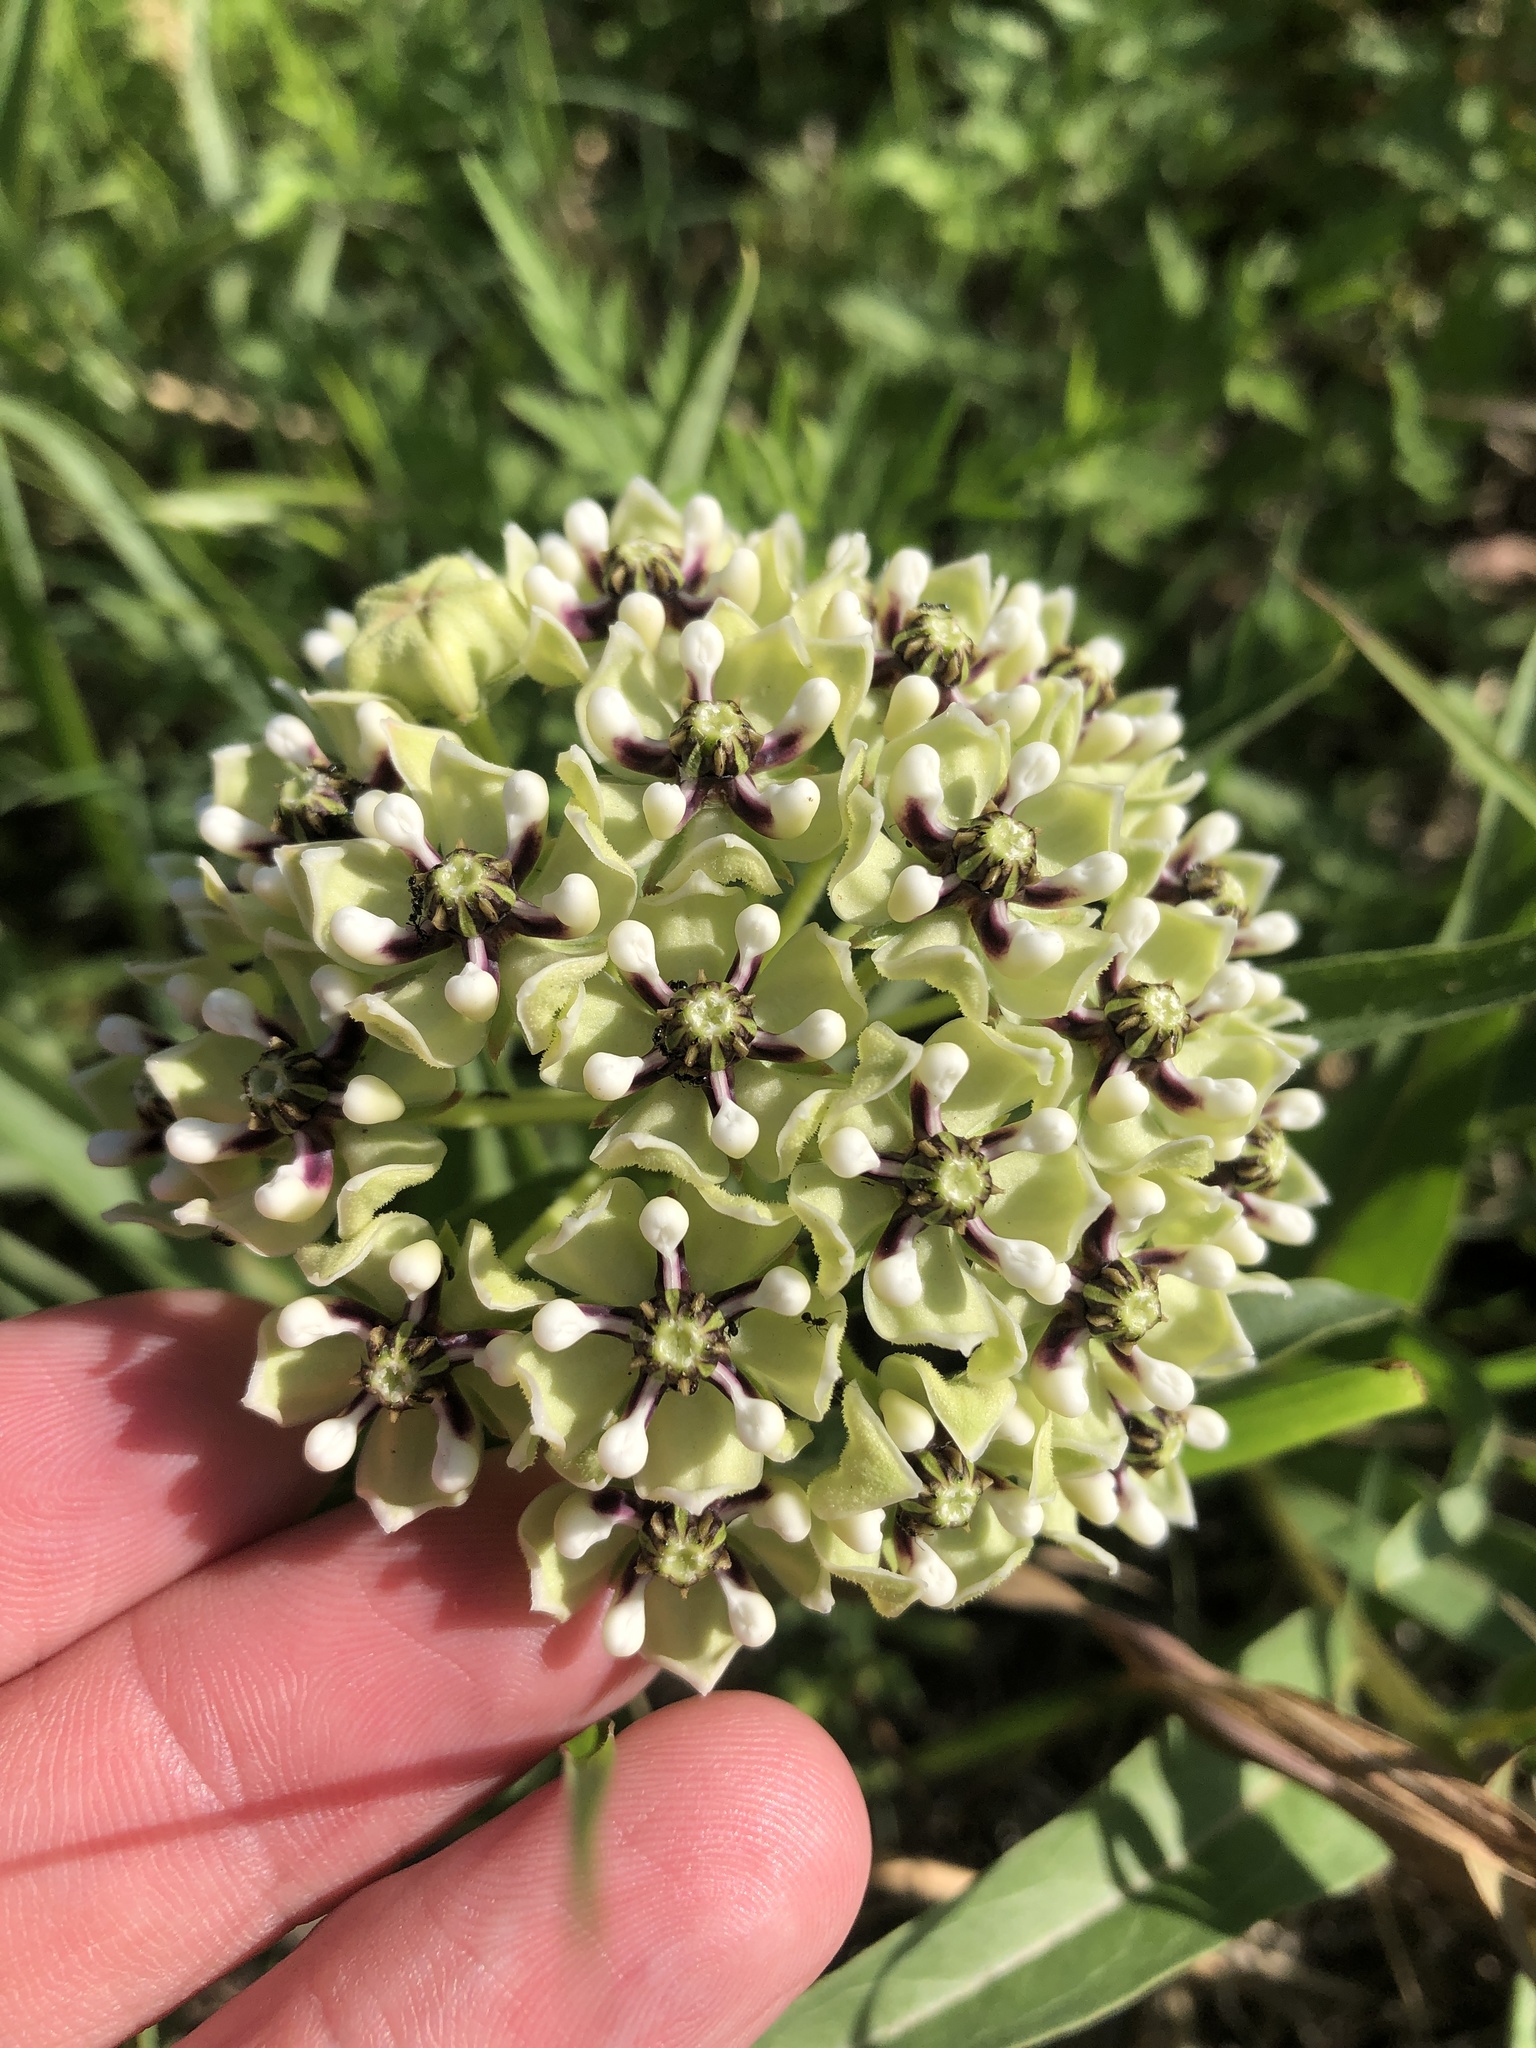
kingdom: Plantae
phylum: Tracheophyta
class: Magnoliopsida
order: Gentianales
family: Apocynaceae
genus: Asclepias
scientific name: Asclepias asperula
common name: Antelope horns
